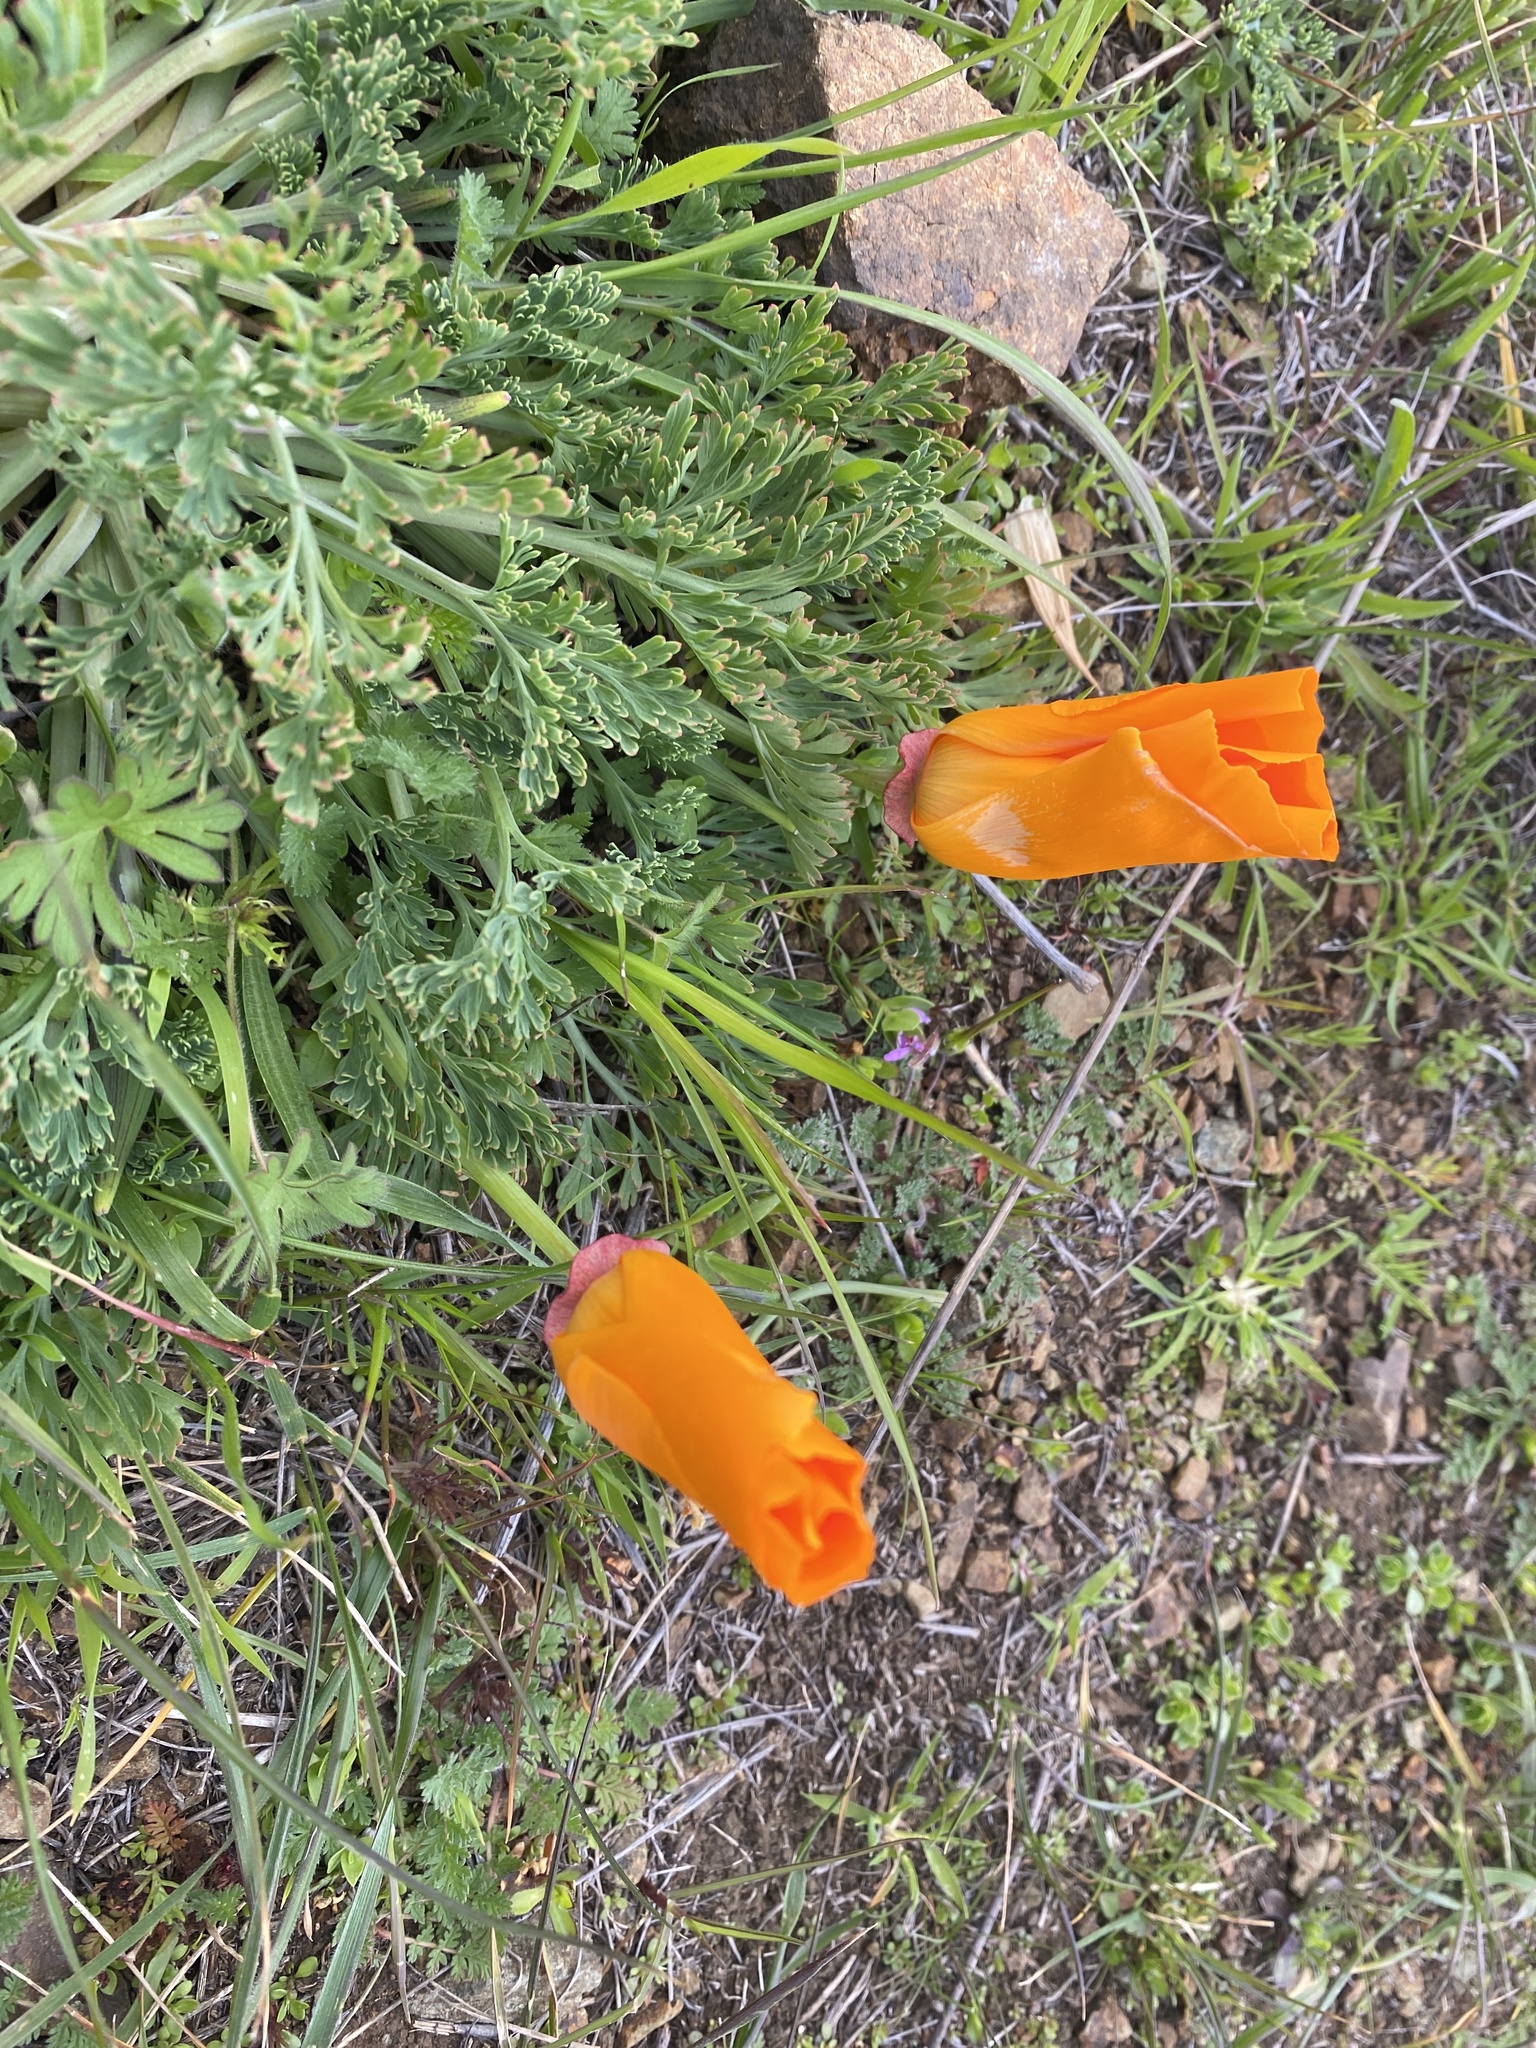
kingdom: Plantae
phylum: Tracheophyta
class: Magnoliopsida
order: Ranunculales
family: Papaveraceae
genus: Eschscholzia
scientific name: Eschscholzia californica
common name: California poppy
